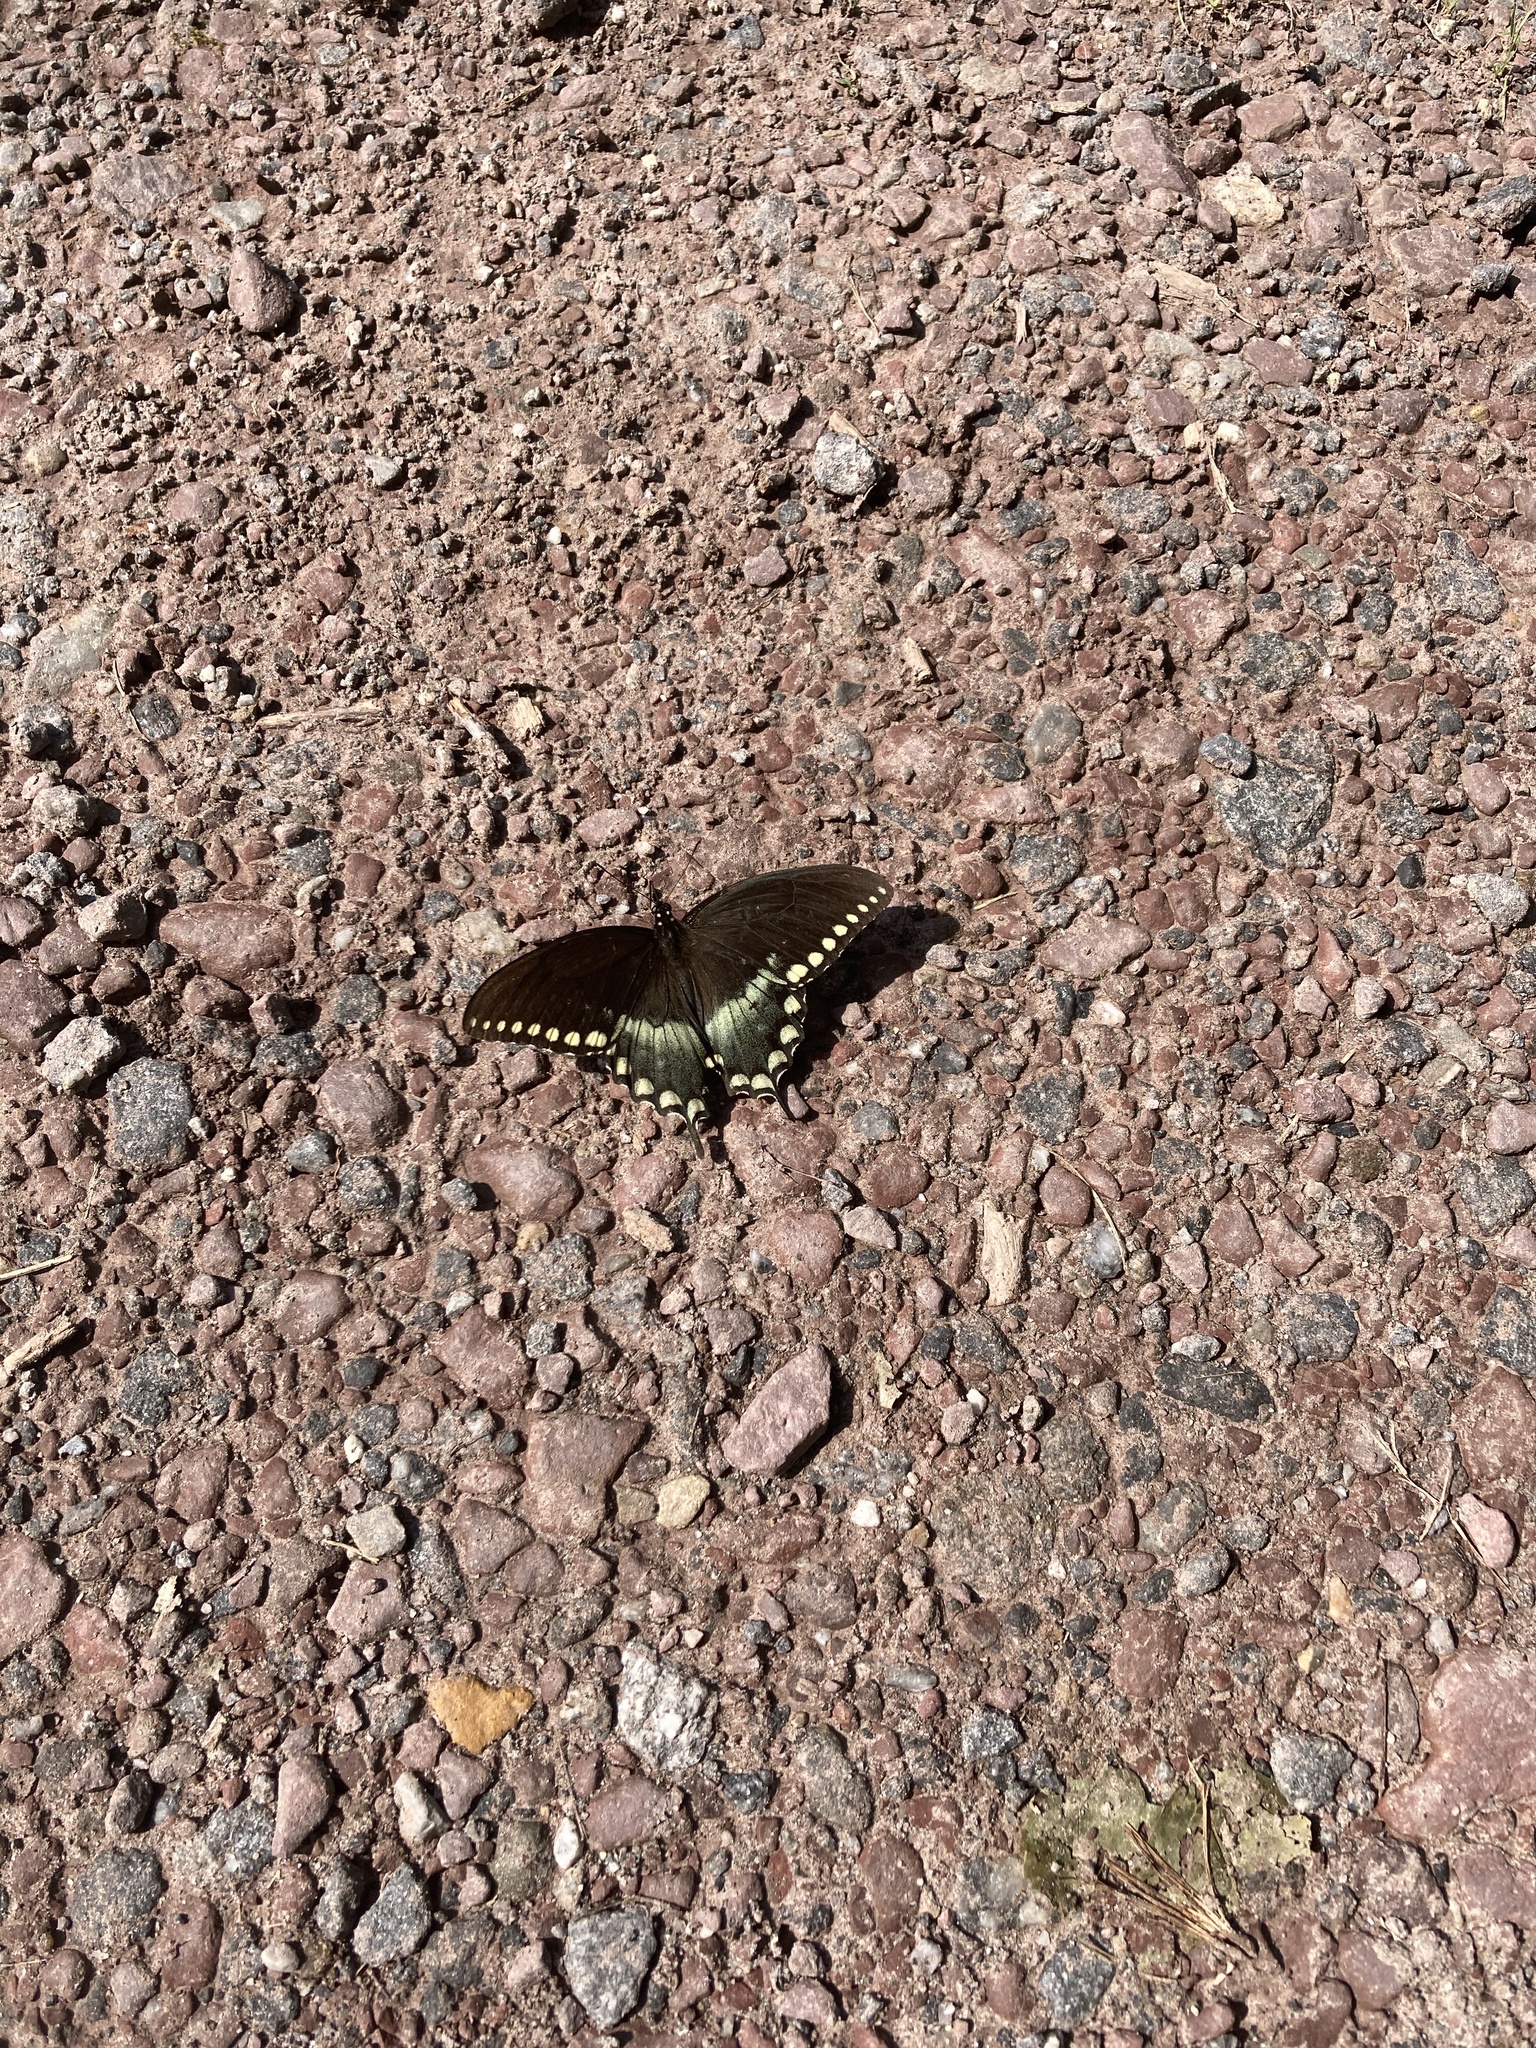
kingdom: Animalia
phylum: Arthropoda
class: Insecta
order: Lepidoptera
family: Papilionidae
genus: Papilio
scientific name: Papilio troilus
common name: Spicebush swallowtail
